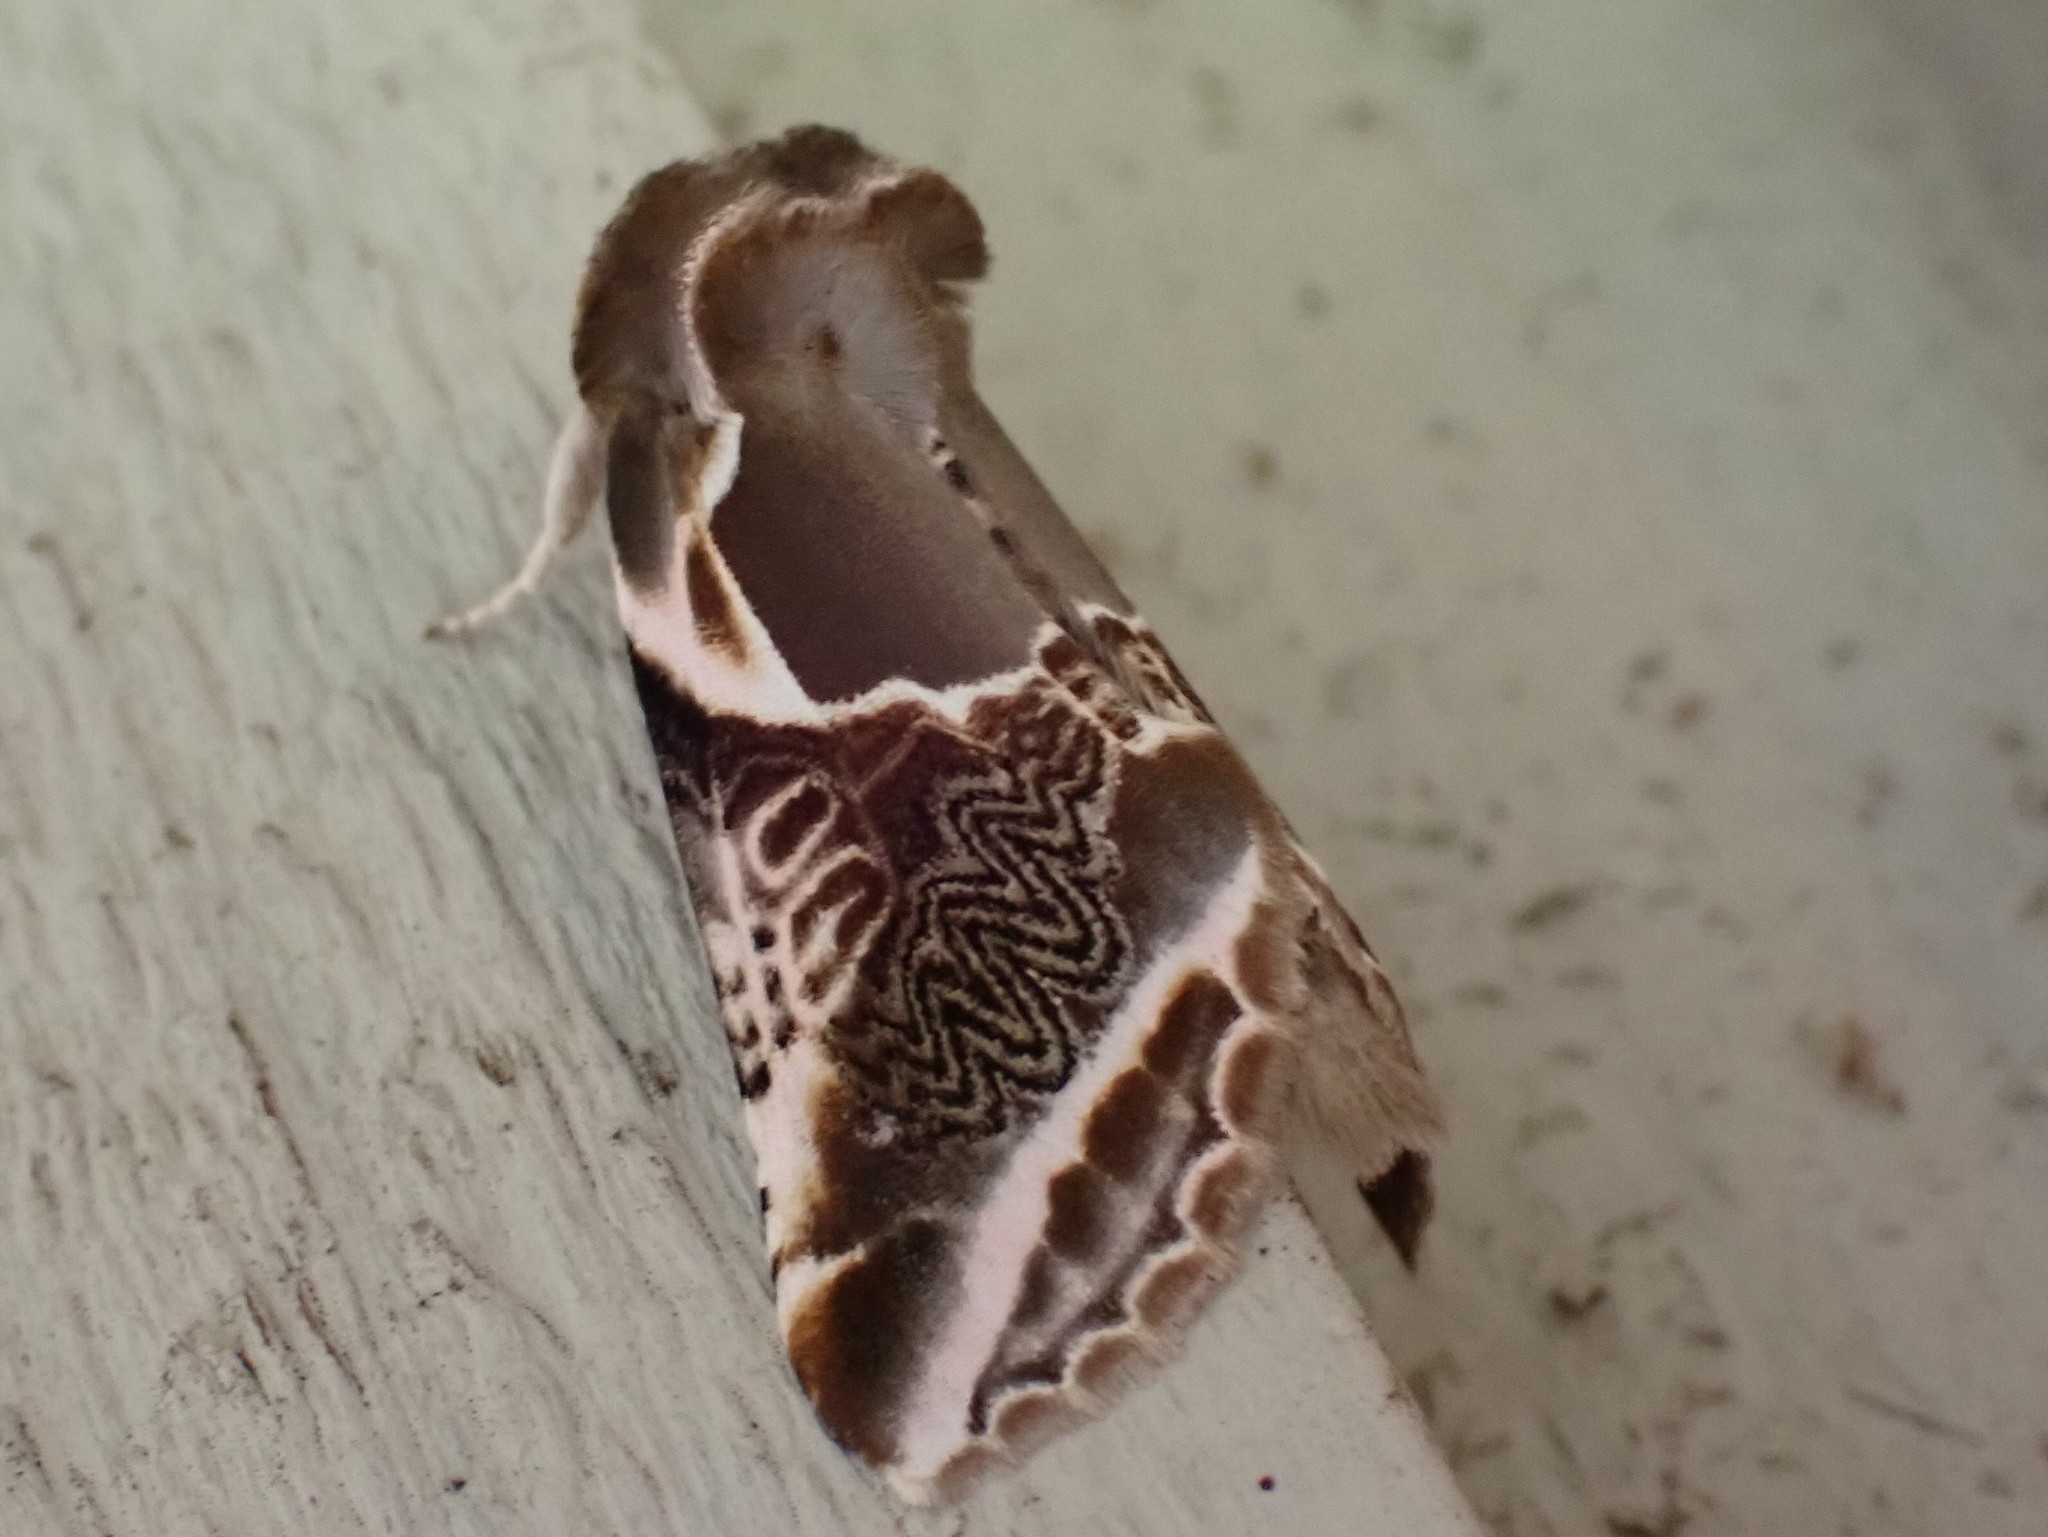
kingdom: Animalia
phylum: Arthropoda
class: Insecta
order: Lepidoptera
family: Drepanidae
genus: Habrosyne
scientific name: Habrosyne scripta
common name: Lettered habrosyne moth
